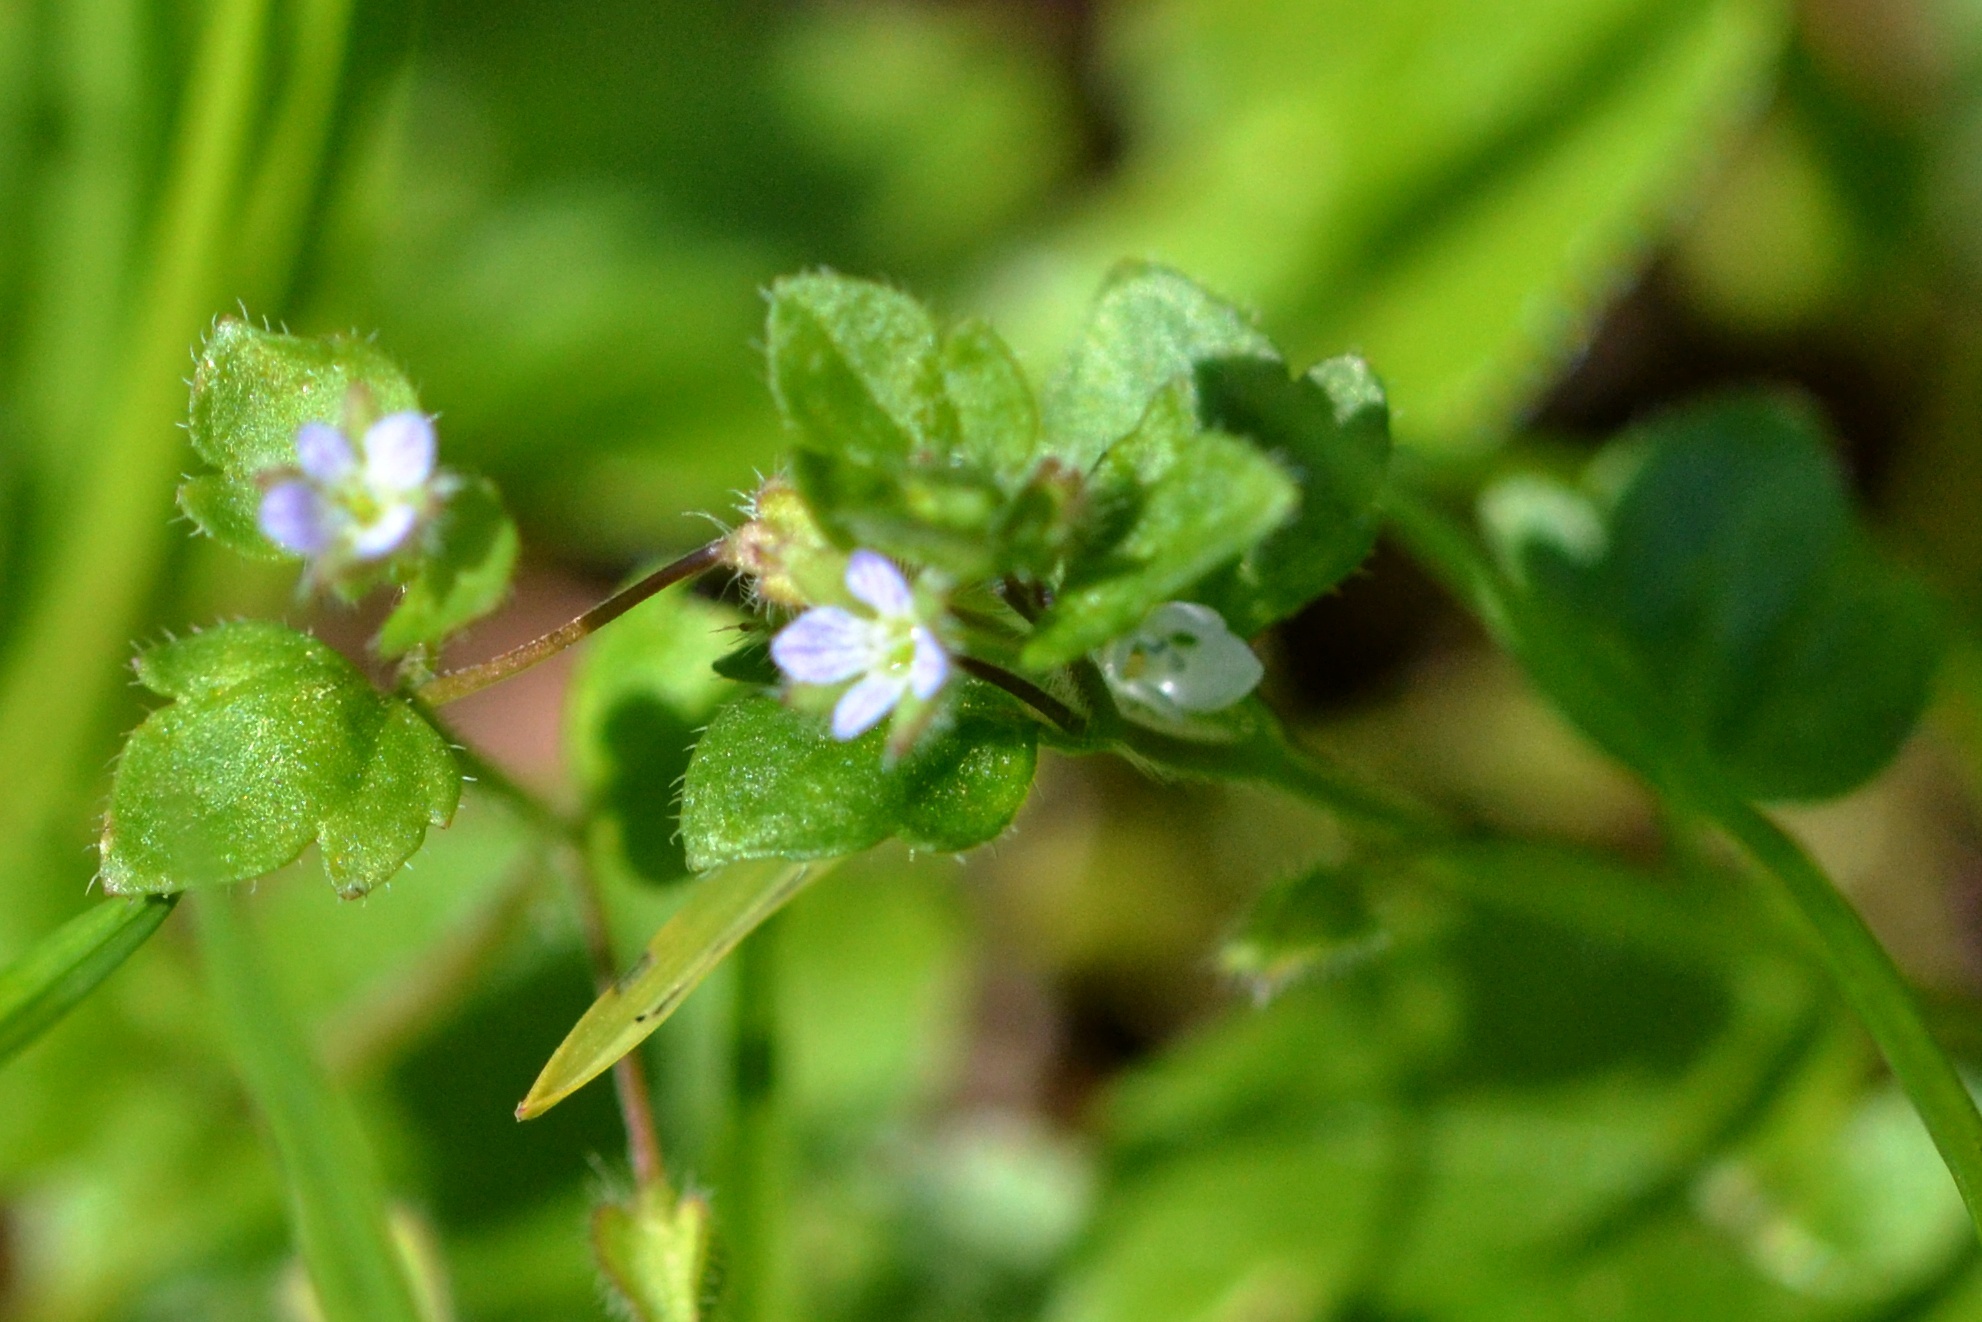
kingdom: Plantae
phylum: Tracheophyta
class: Magnoliopsida
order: Lamiales
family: Plantaginaceae
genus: Veronica
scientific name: Veronica sublobata
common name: False ivy-leaved speedwell
